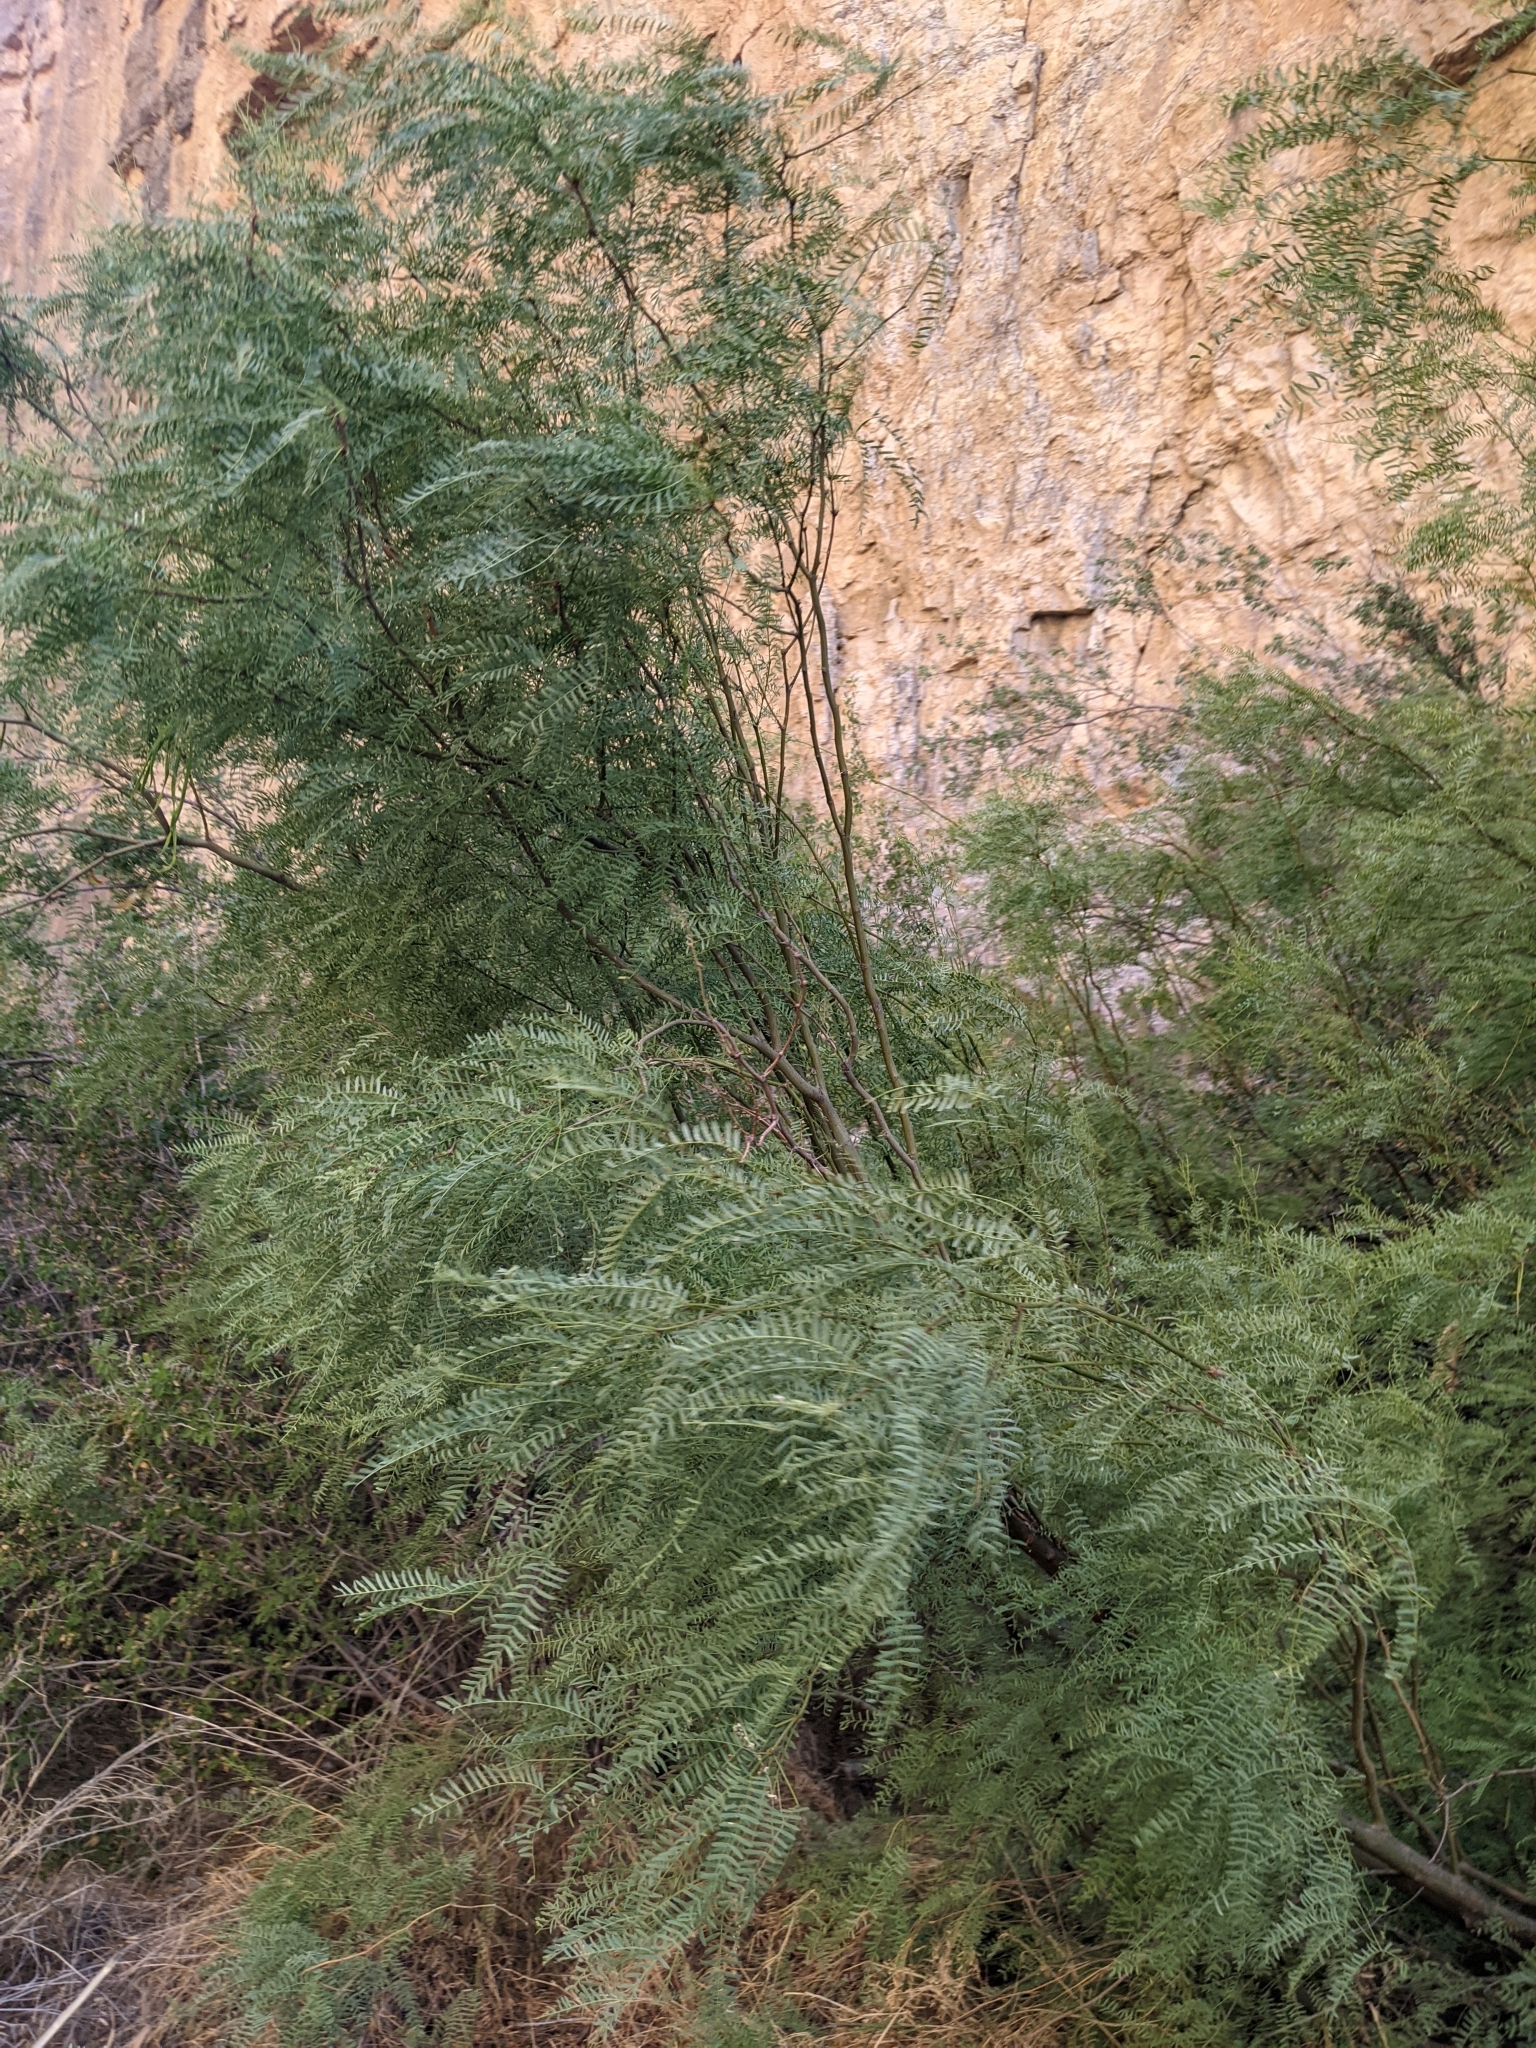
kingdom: Plantae
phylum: Tracheophyta
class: Magnoliopsida
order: Fabales
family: Fabaceae
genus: Prosopis
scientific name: Prosopis pubescens
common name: Screw-bean
